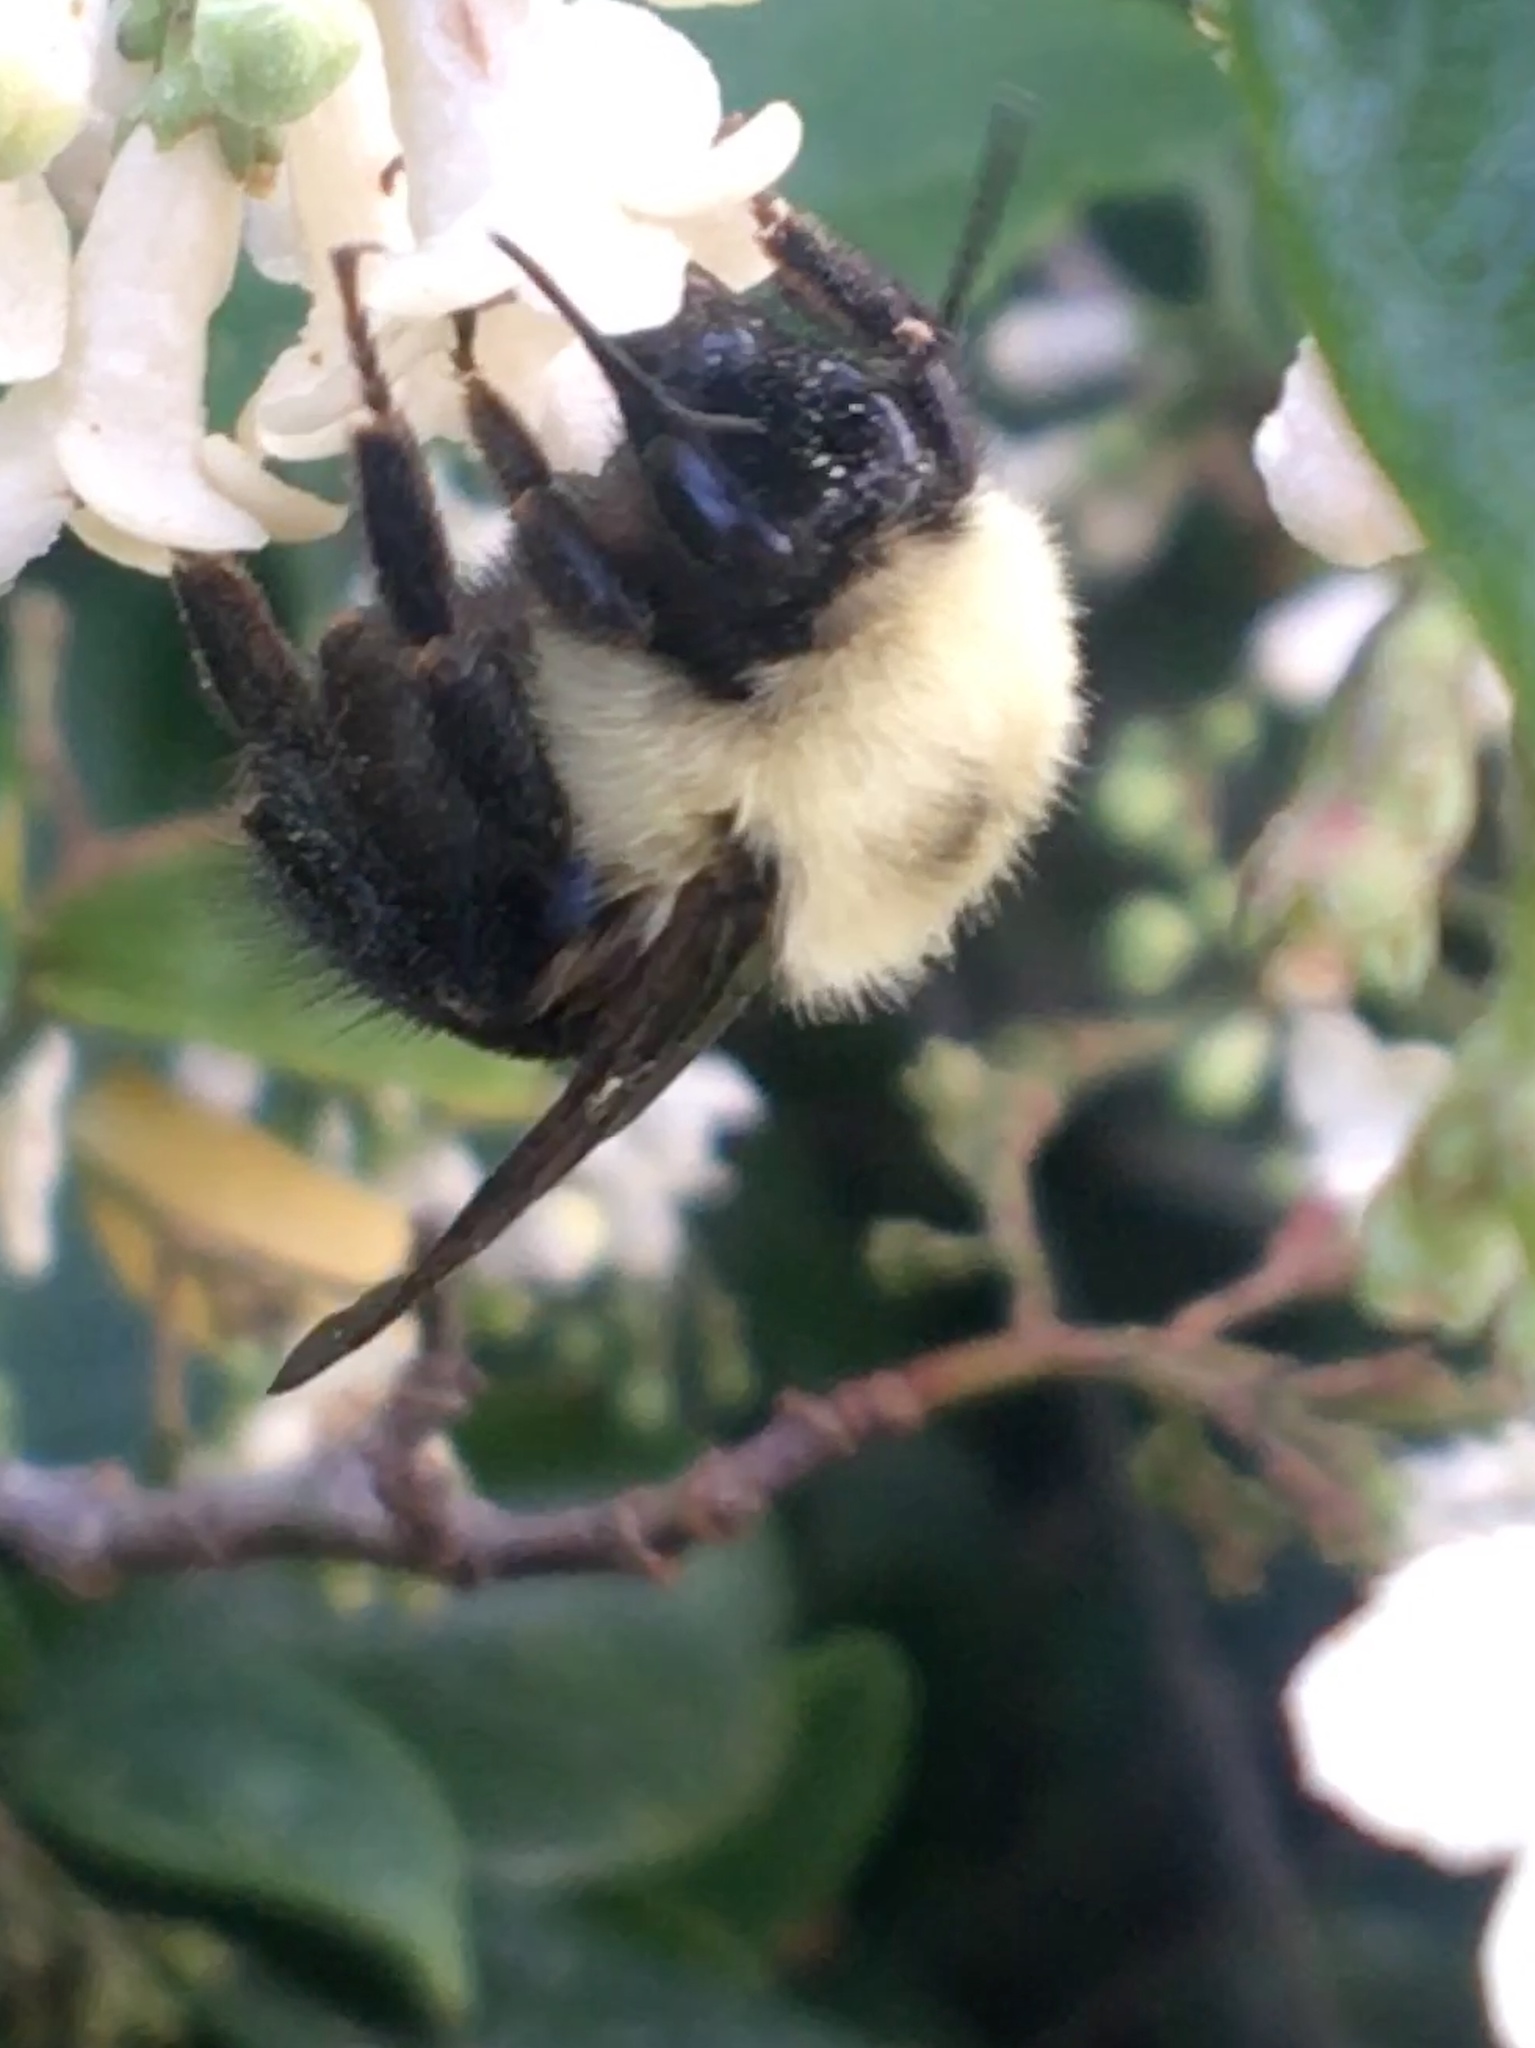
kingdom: Animalia
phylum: Arthropoda
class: Insecta
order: Hymenoptera
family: Apidae
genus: Bombus
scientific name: Bombus bimaculatus
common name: Two-spotted bumble bee
